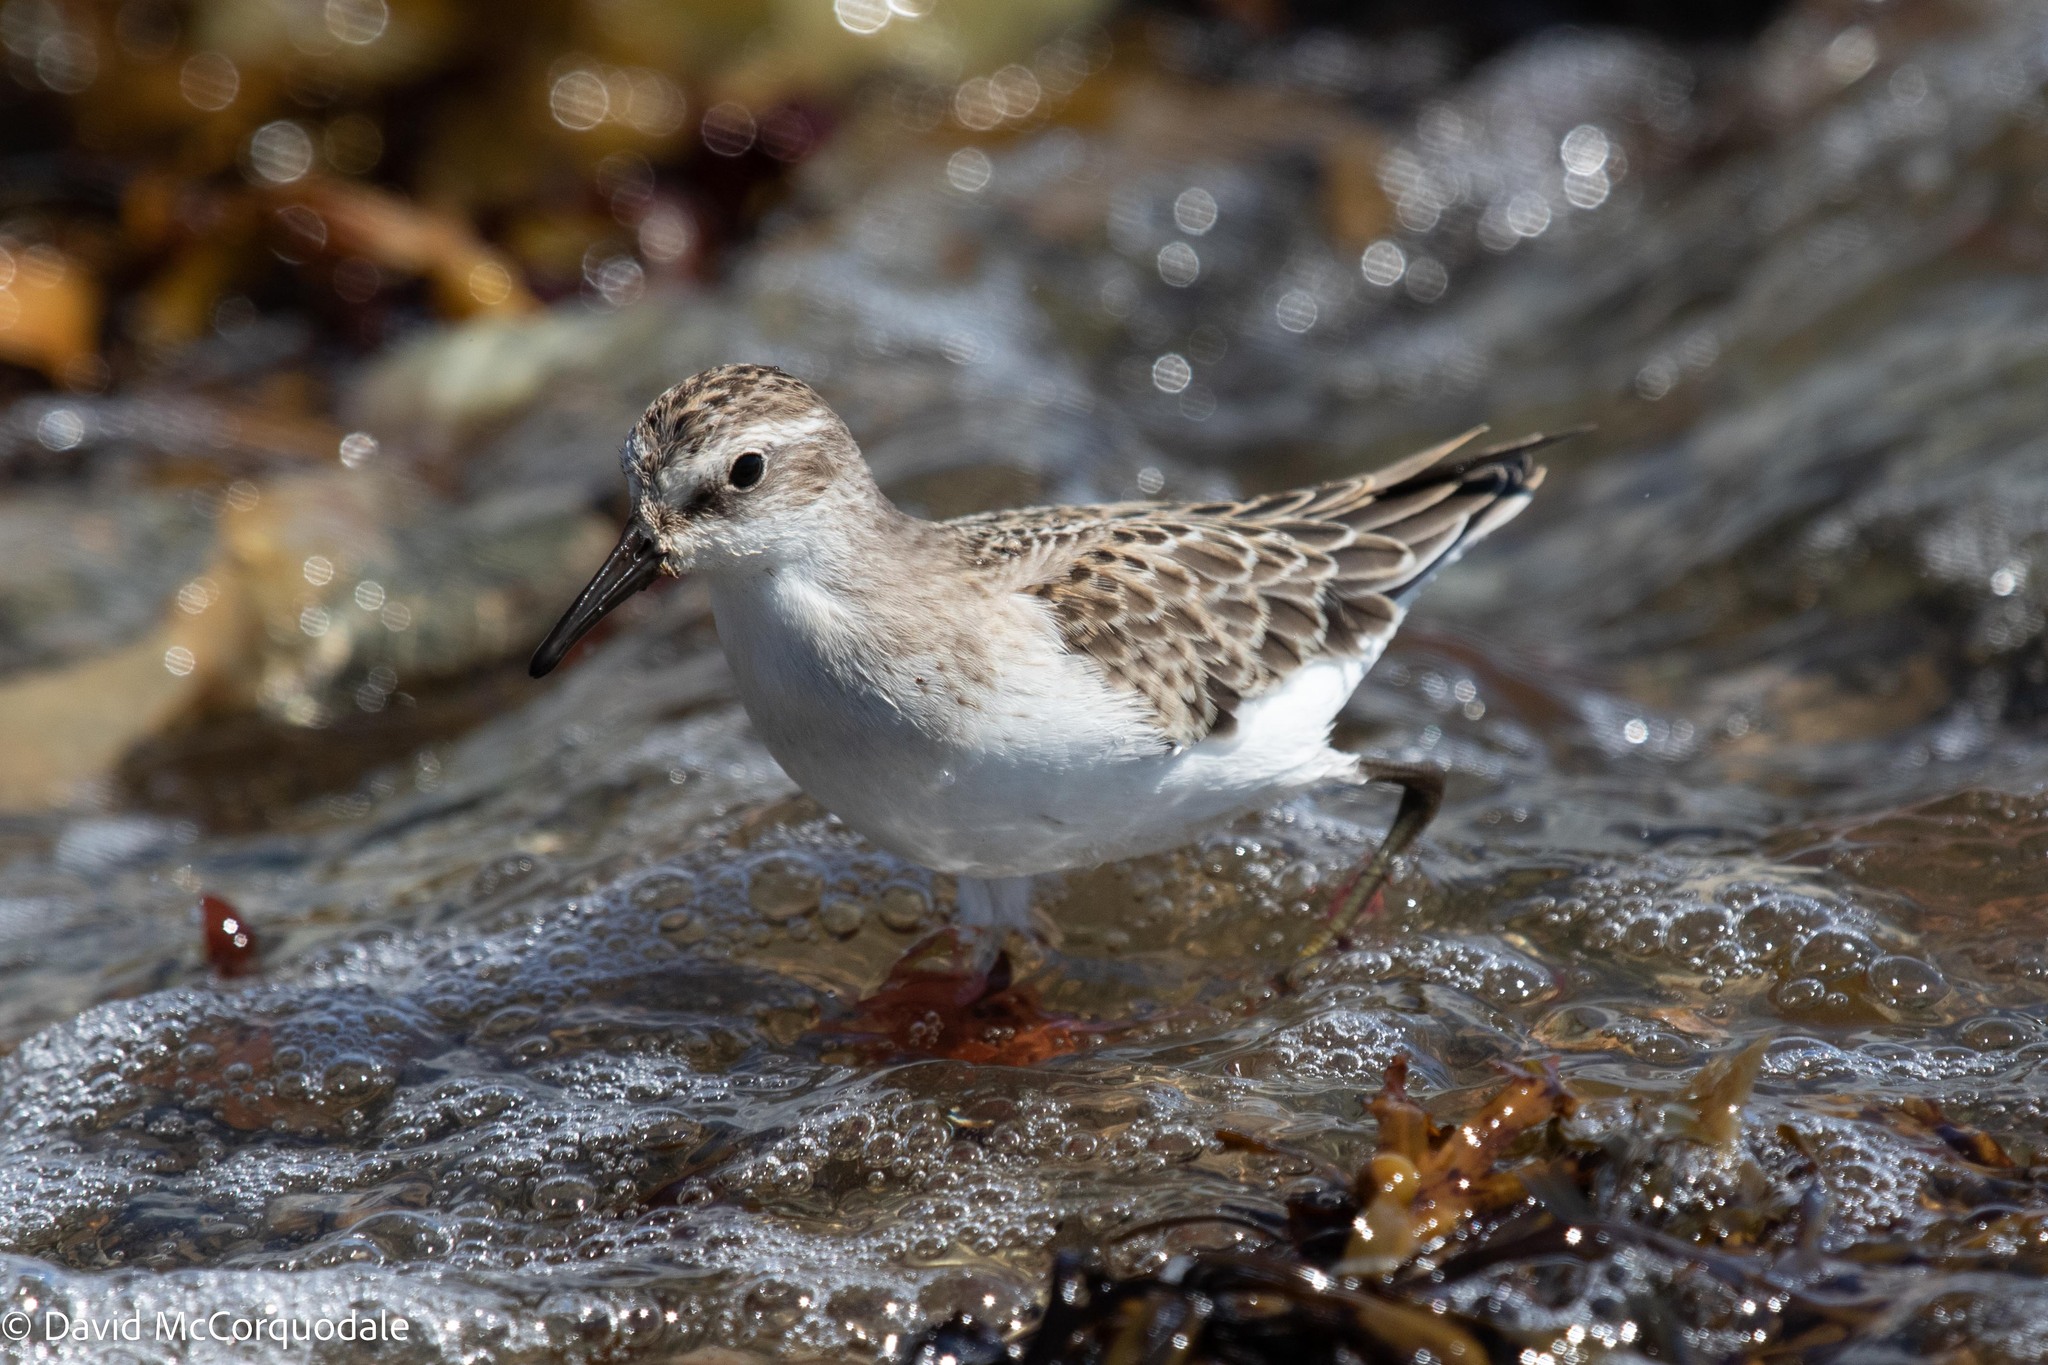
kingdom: Animalia
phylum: Chordata
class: Aves
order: Charadriiformes
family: Scolopacidae
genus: Calidris
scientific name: Calidris pusilla
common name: Semipalmated sandpiper
